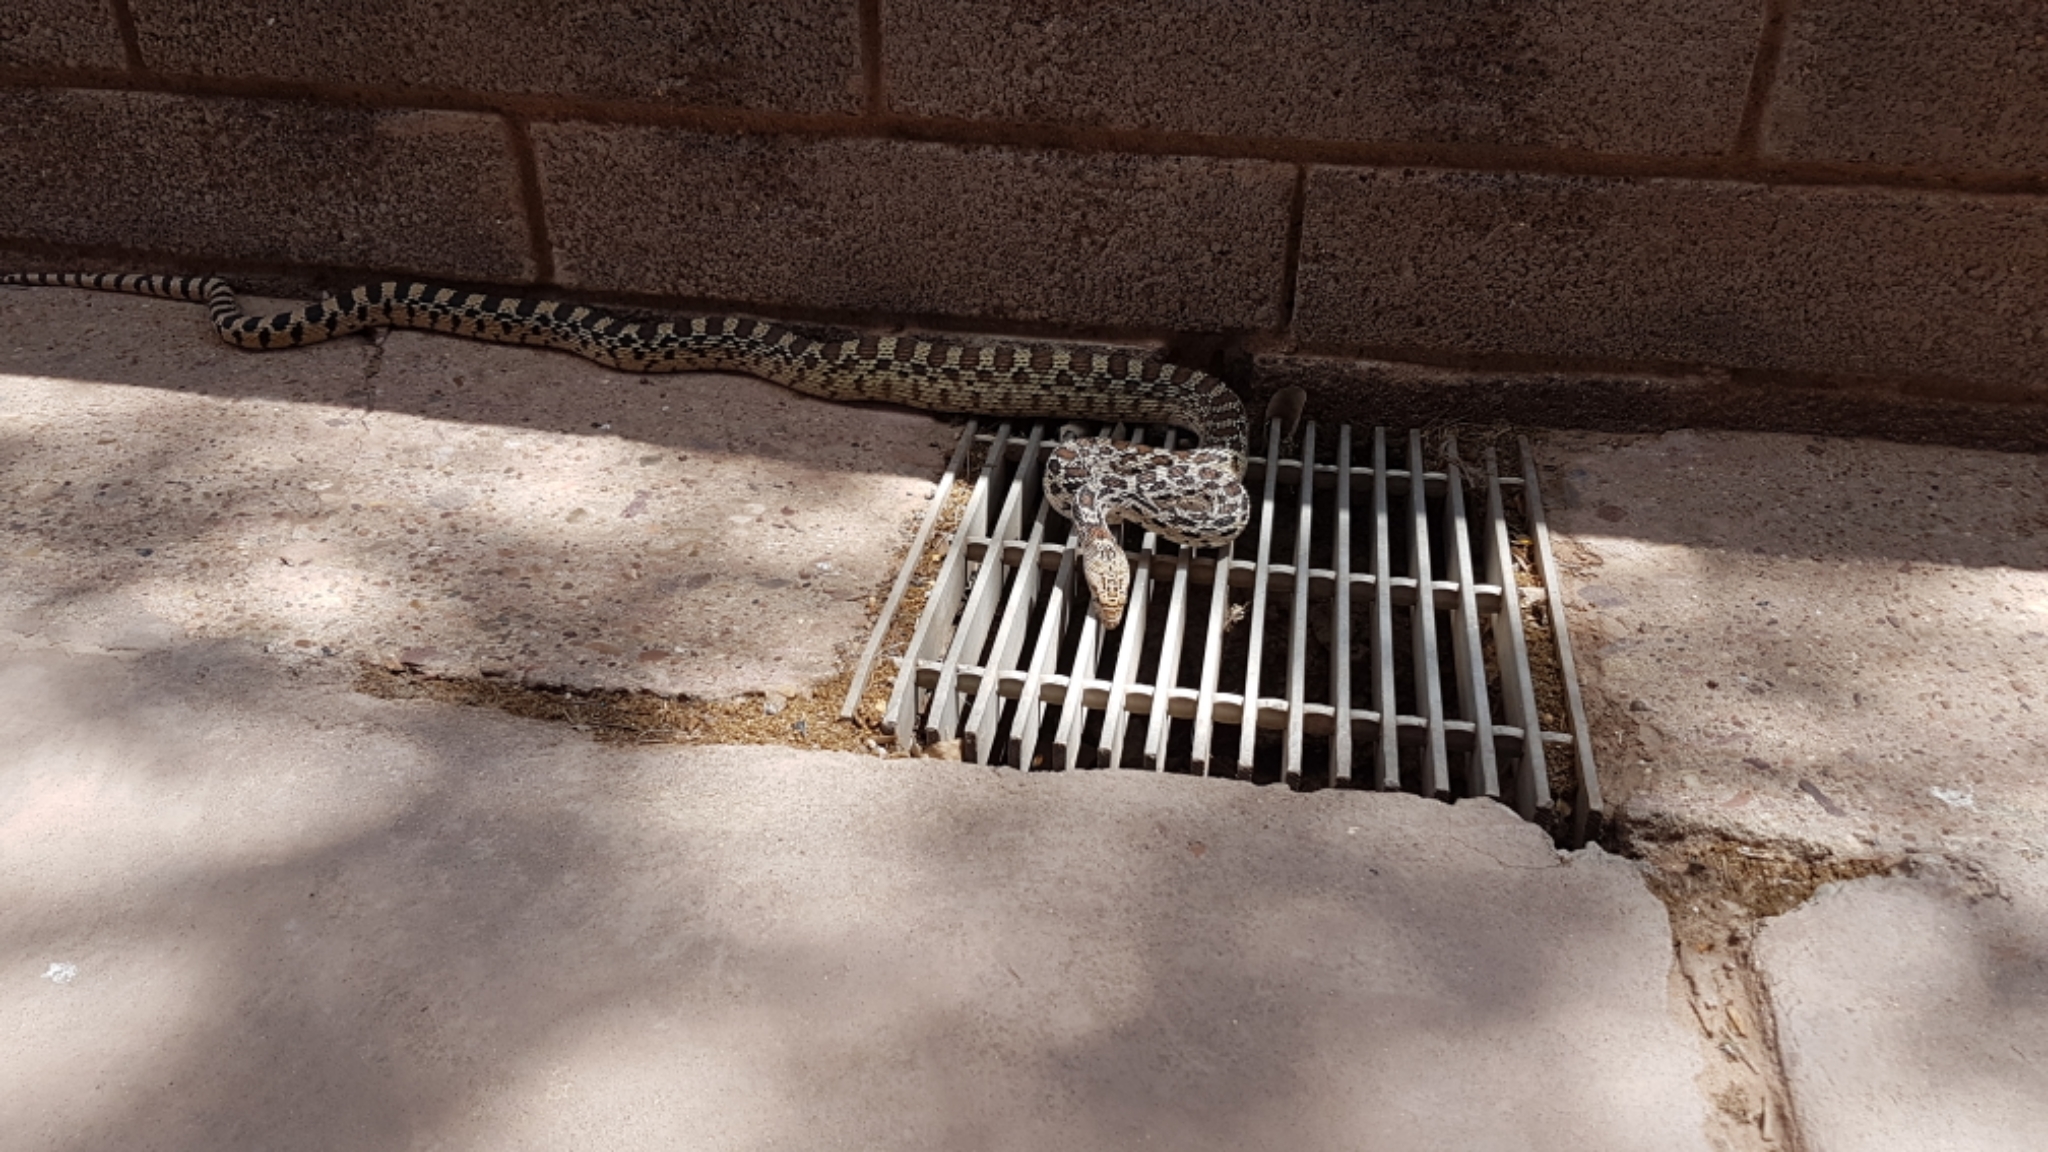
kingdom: Animalia
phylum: Chordata
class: Squamata
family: Colubridae
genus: Pituophis
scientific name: Pituophis catenifer
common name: Gopher snake
